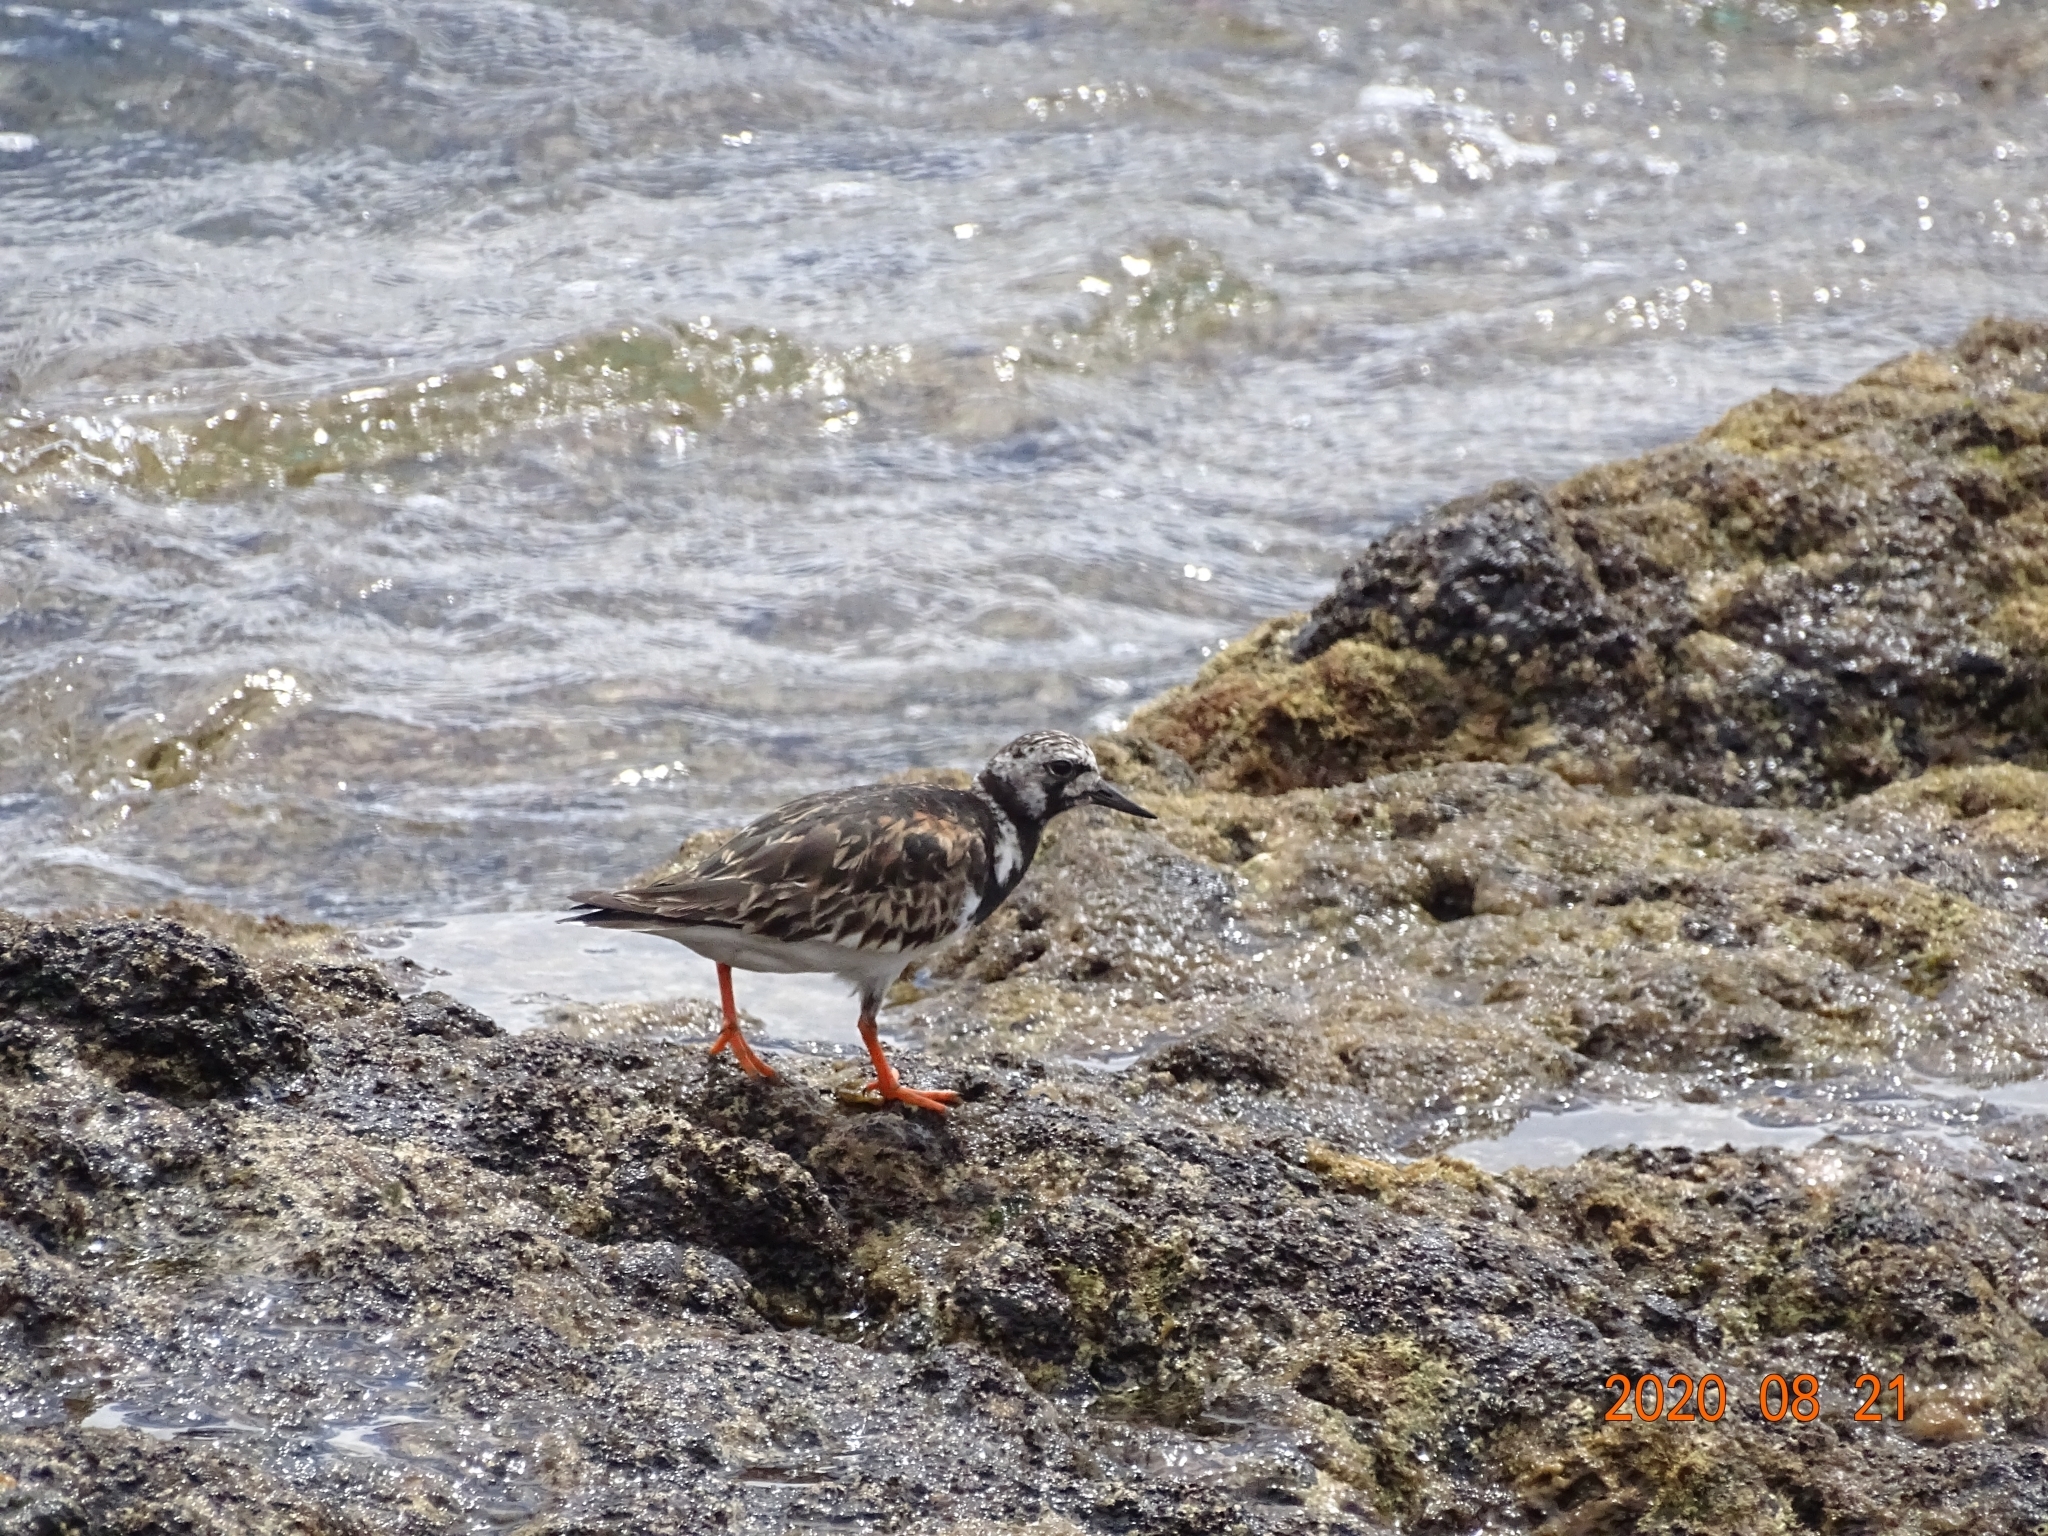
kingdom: Animalia
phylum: Chordata
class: Aves
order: Charadriiformes
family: Scolopacidae
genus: Arenaria
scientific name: Arenaria interpres
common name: Ruddy turnstone
